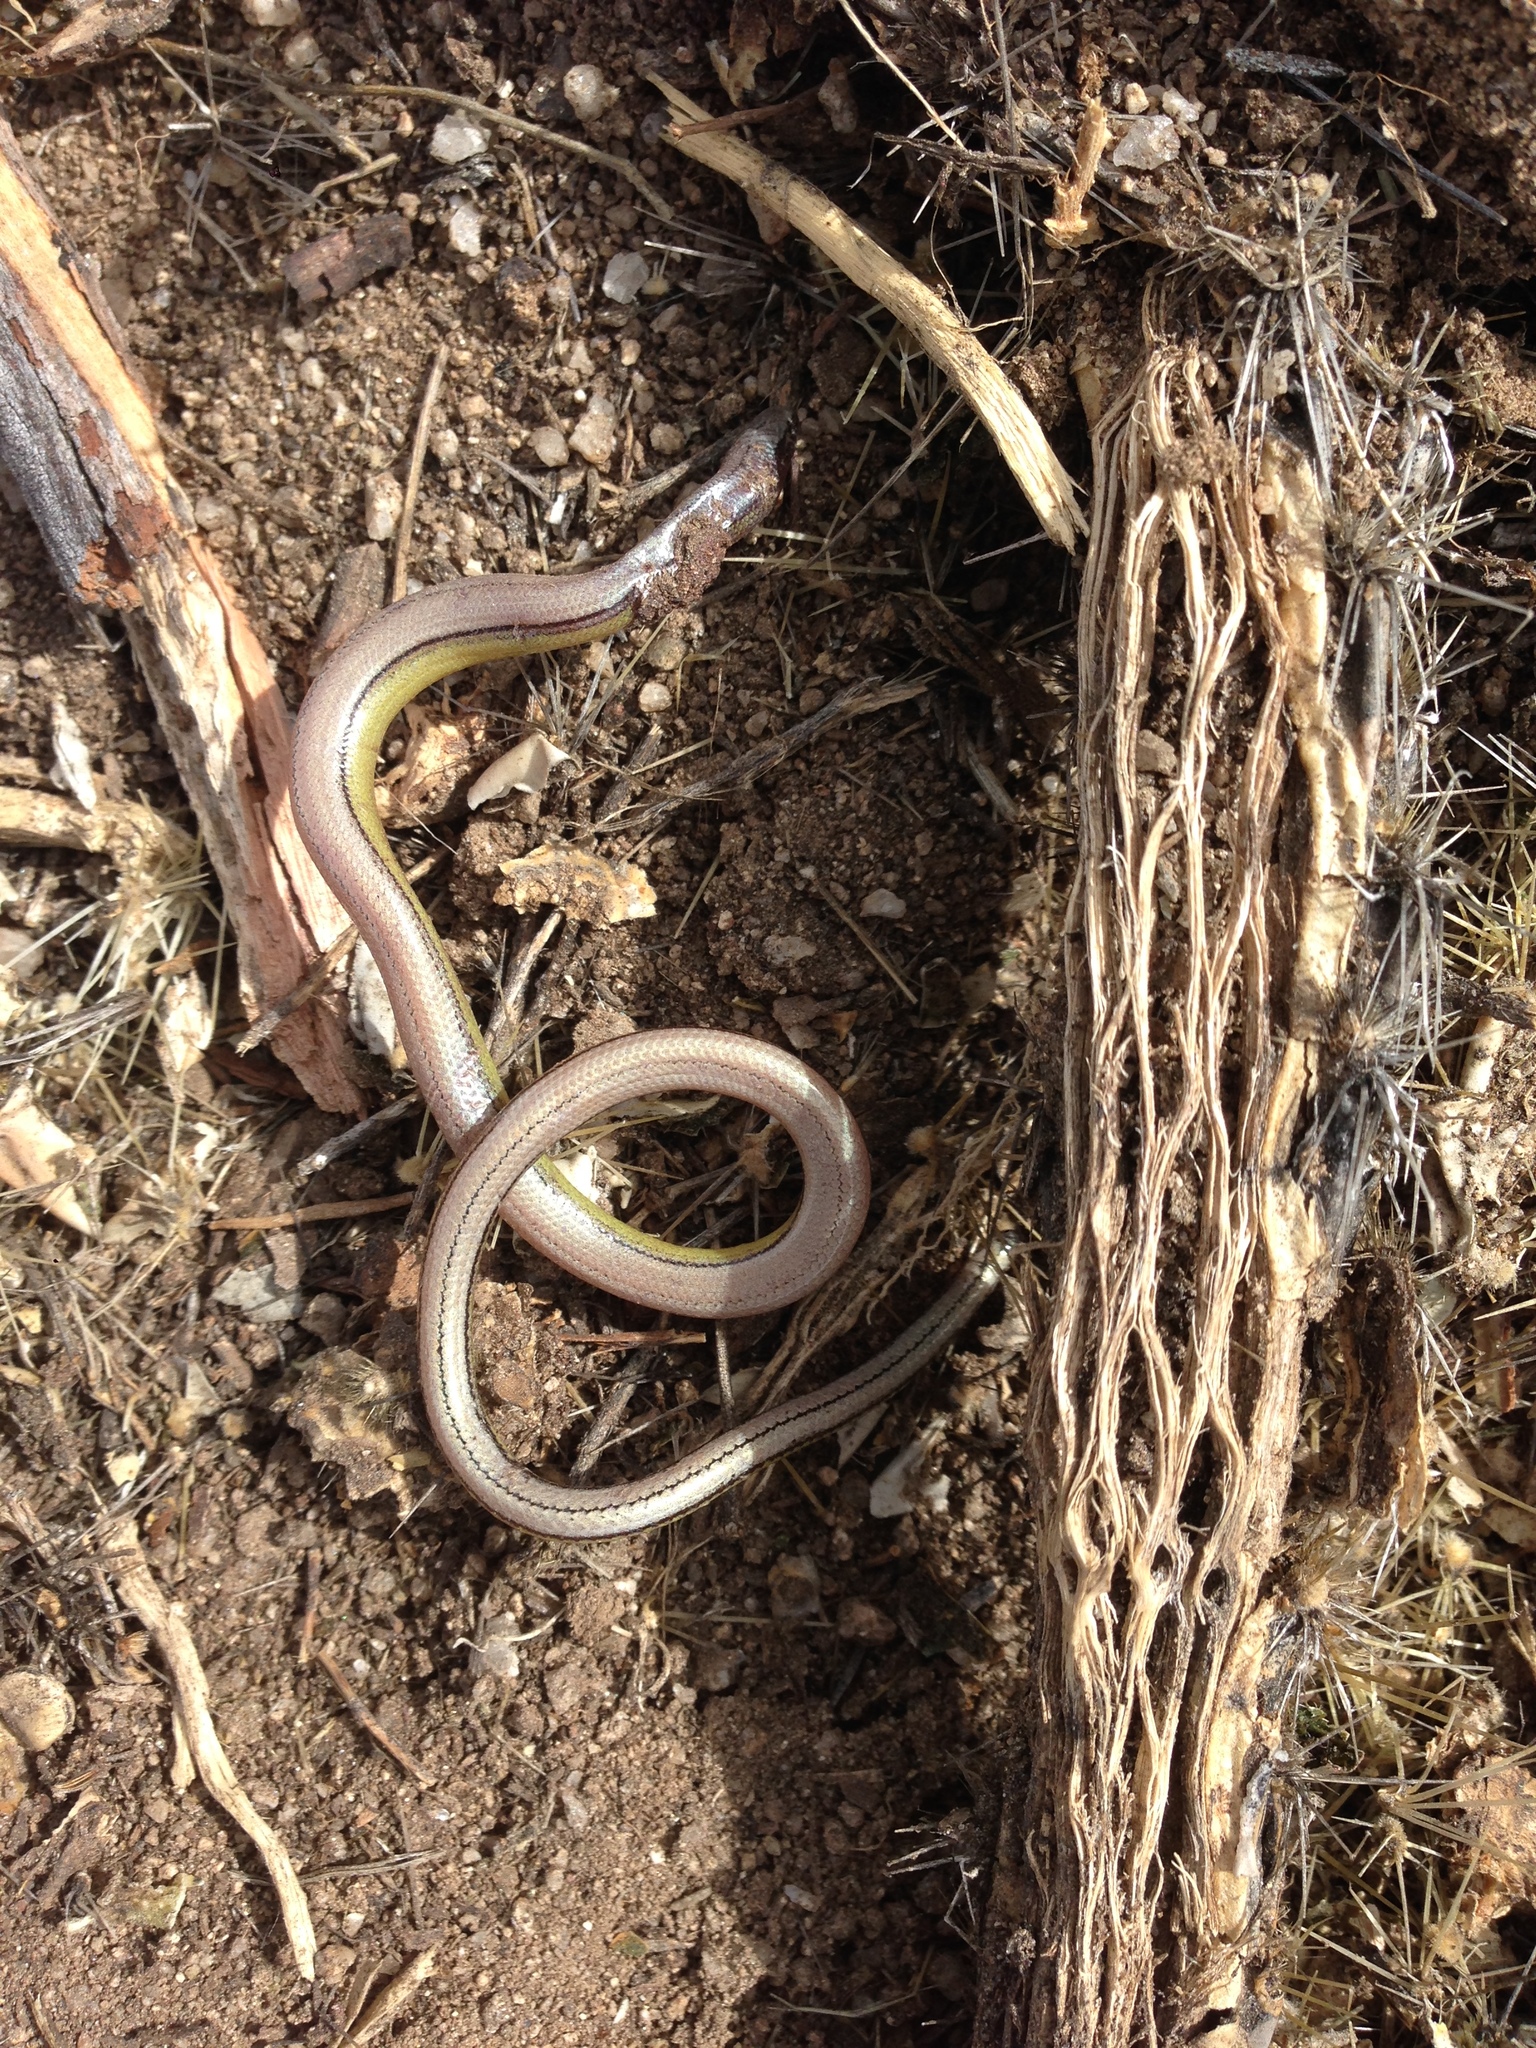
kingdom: Animalia
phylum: Chordata
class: Squamata
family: Anguidae
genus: Anniella
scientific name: Anniella stebbinsi
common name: Southern california legless lizard
